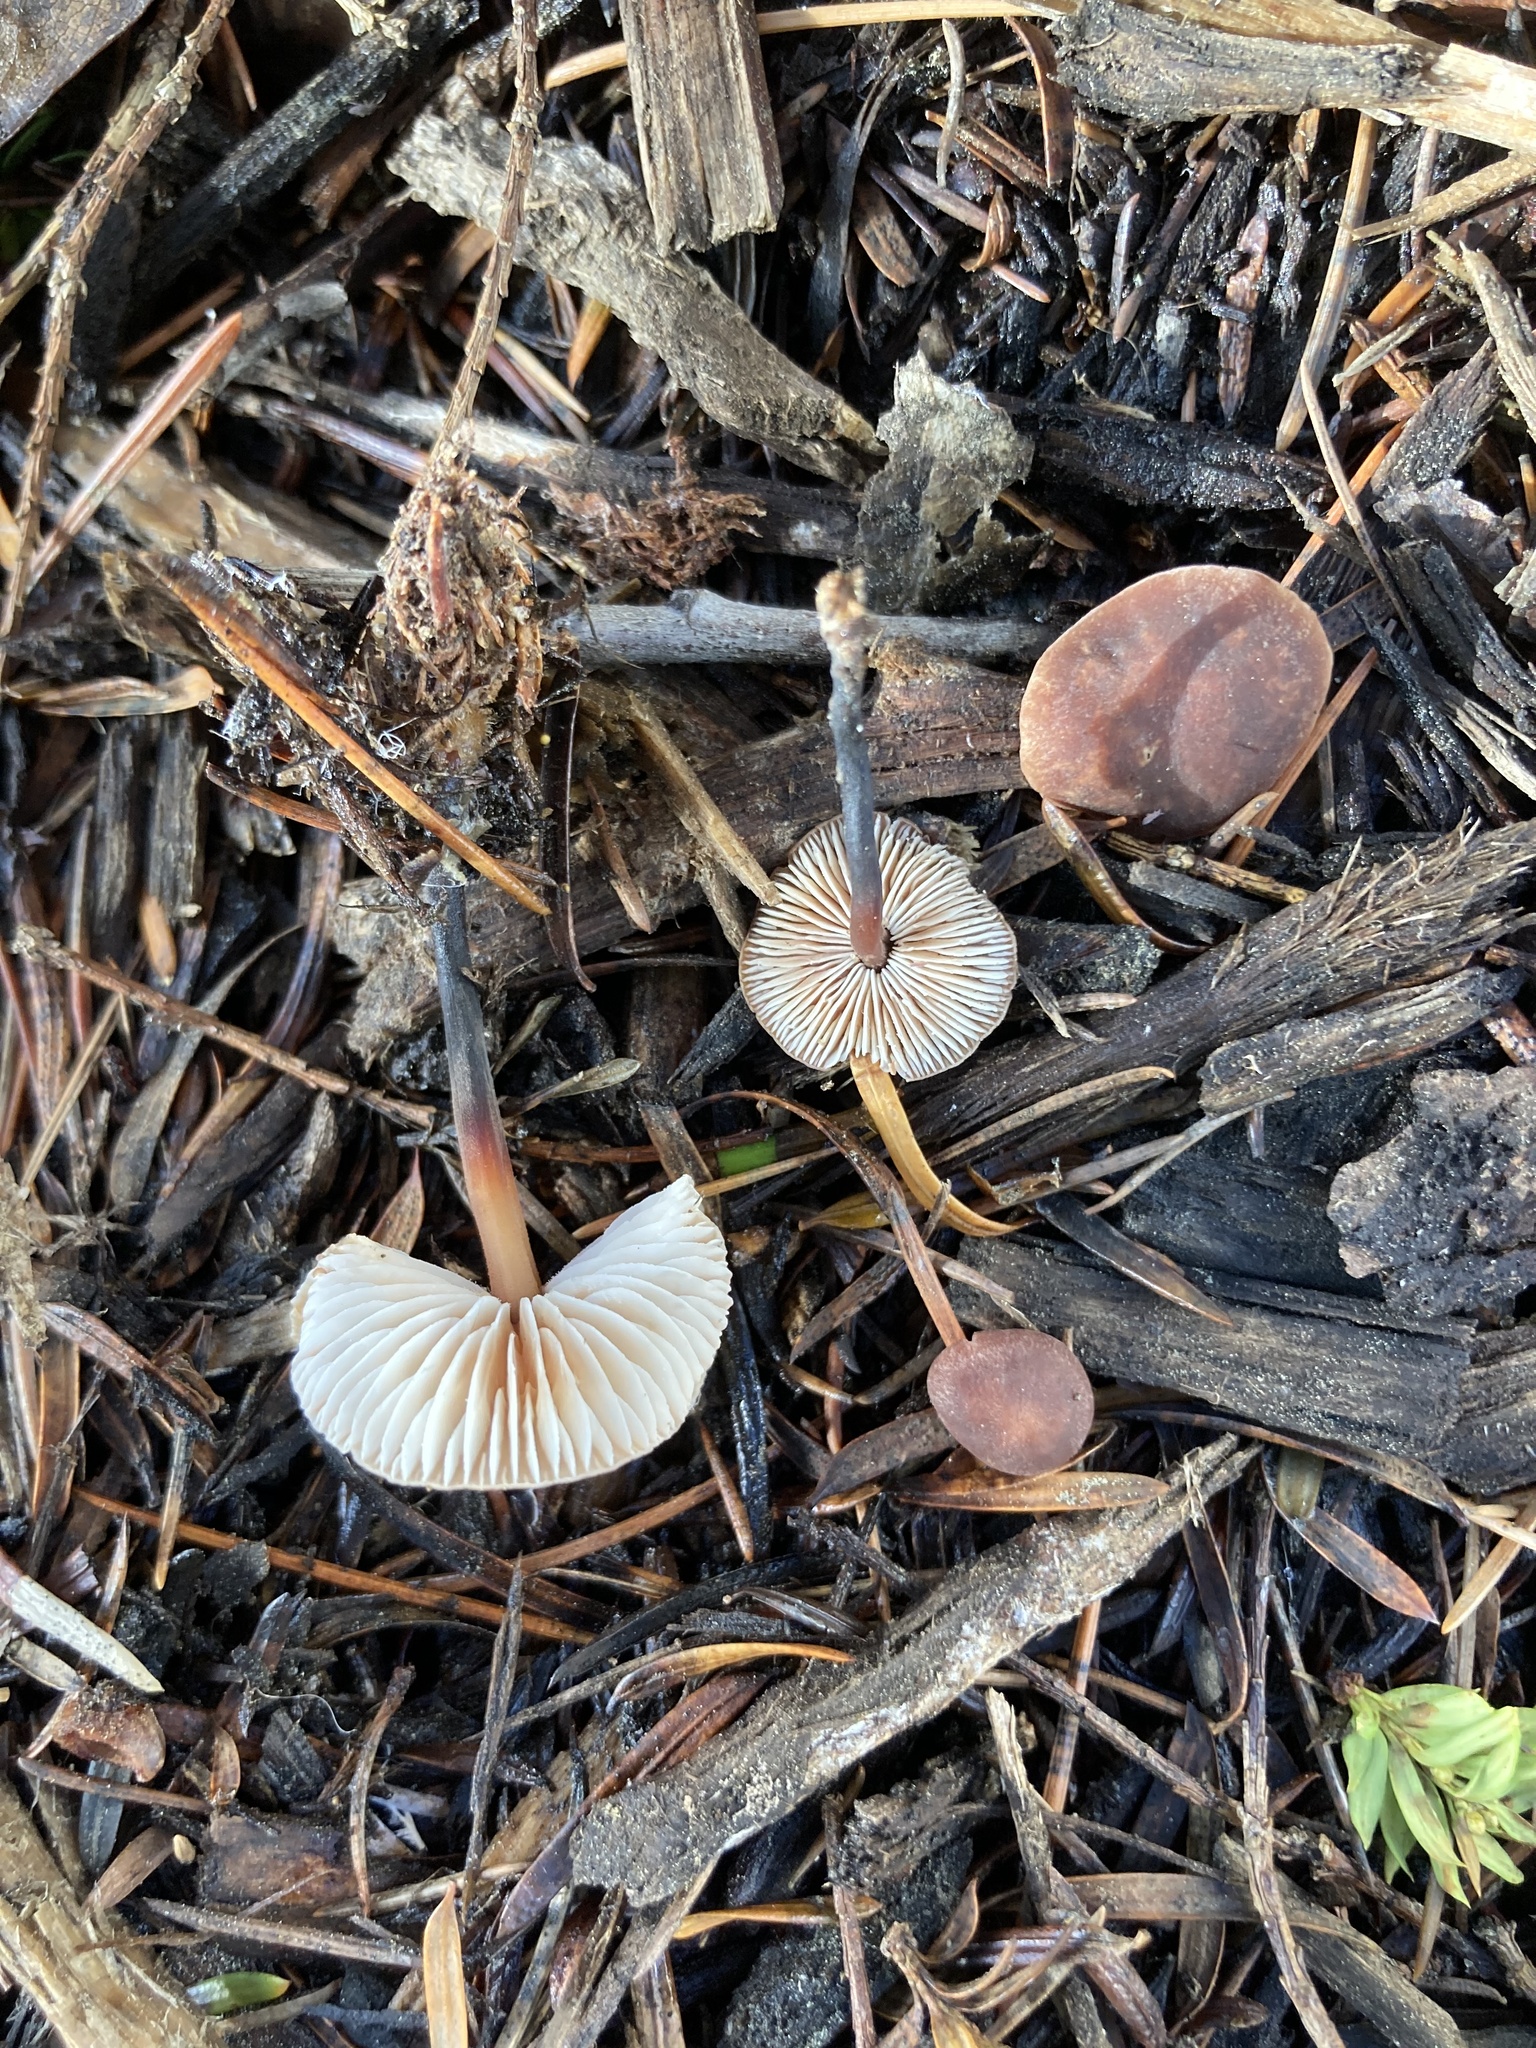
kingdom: Fungi
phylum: Basidiomycota
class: Agaricomycetes
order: Agaricales
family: Omphalotaceae
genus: Gymnopus
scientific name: Gymnopus brassicolens
